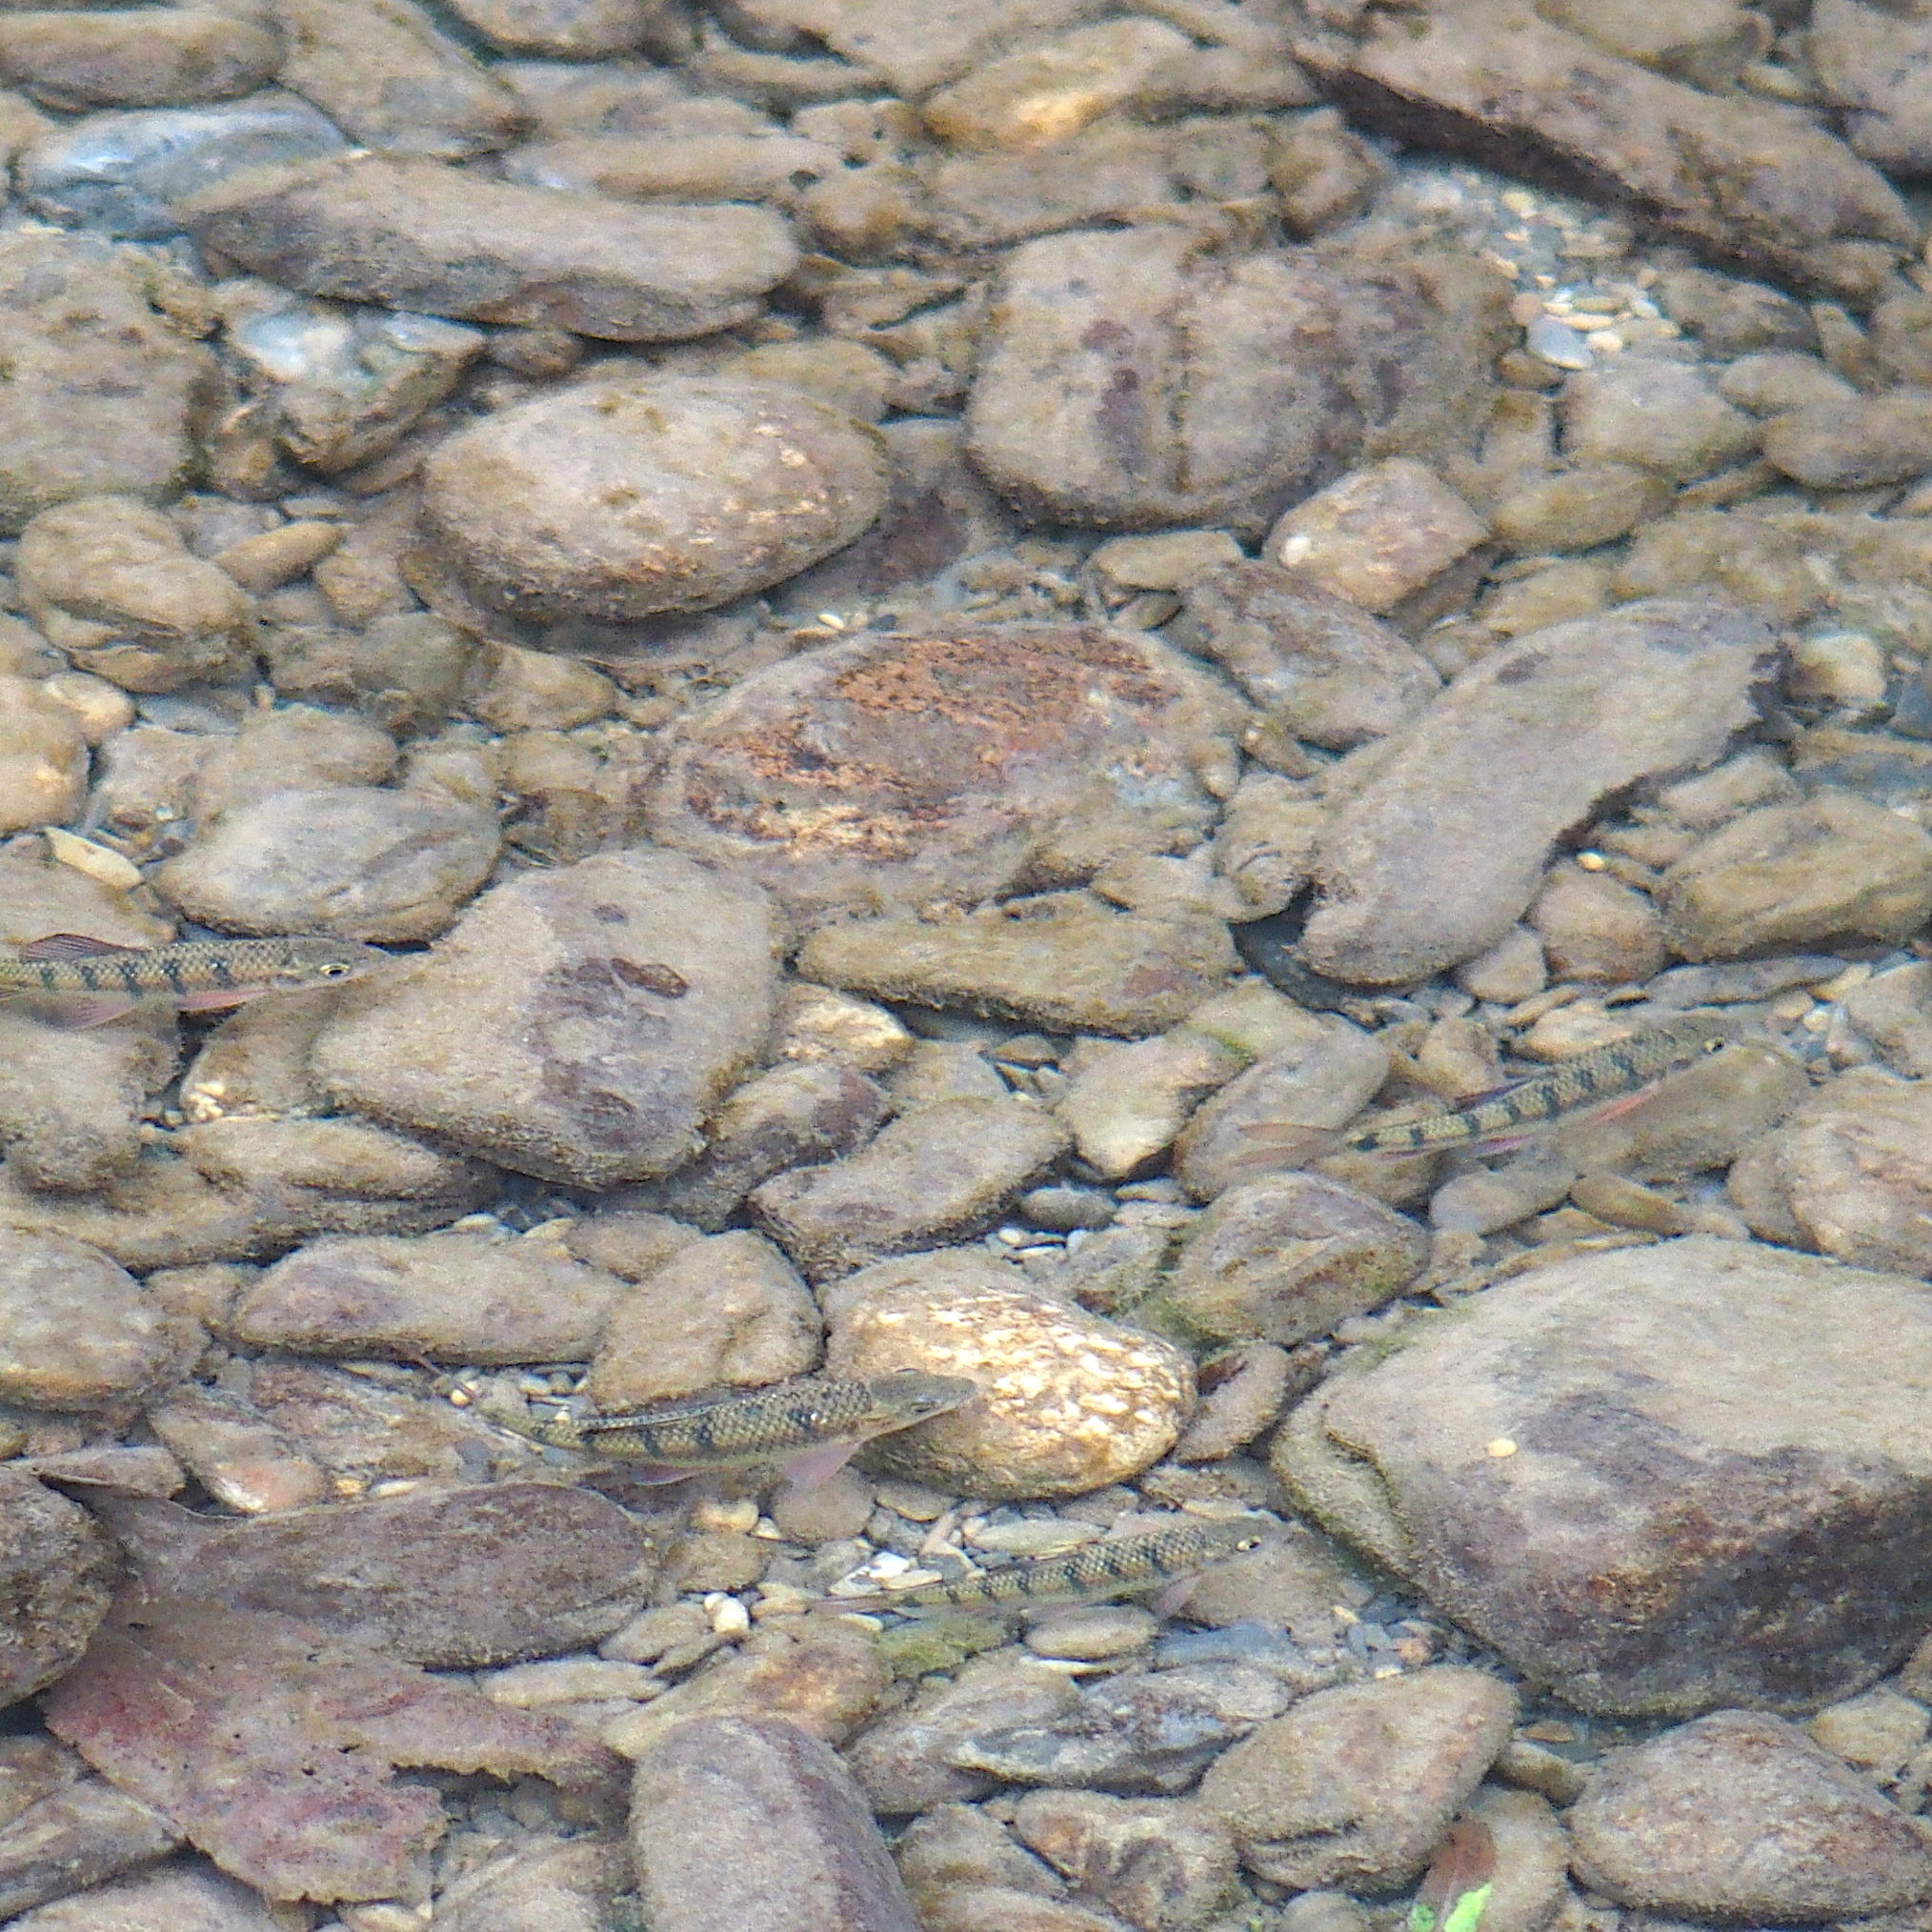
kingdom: Animalia
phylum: Chordata
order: Cypriniformes
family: Cyprinidae
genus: Acrossocheilus
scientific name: Acrossocheilus paradoxus
